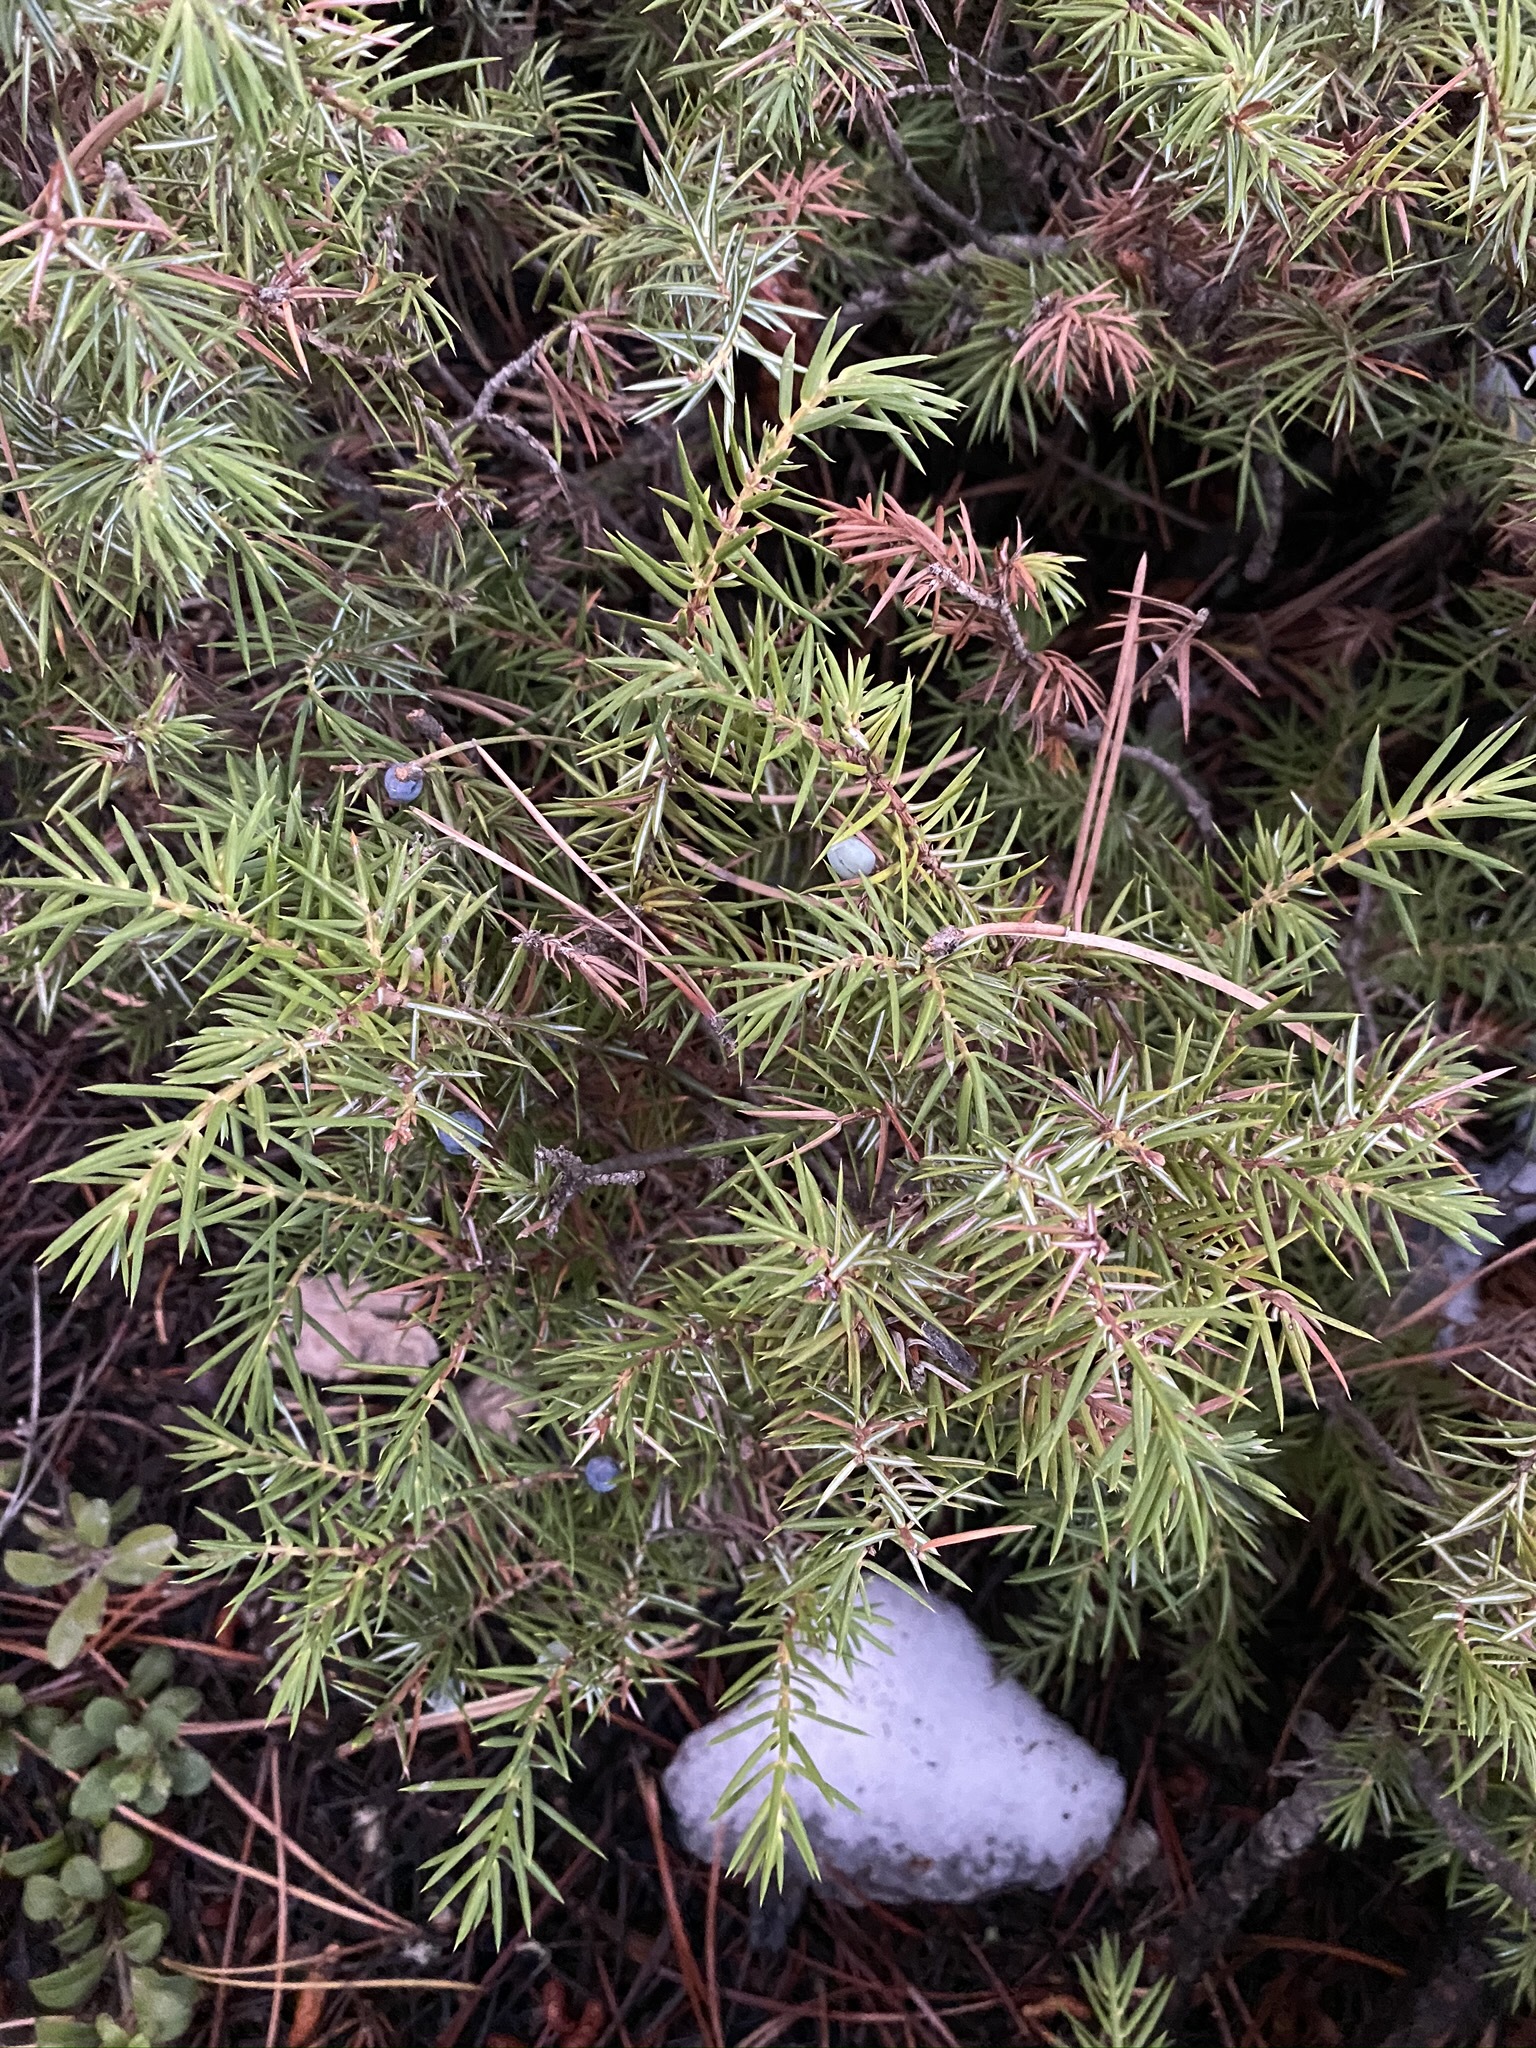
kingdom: Plantae
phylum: Tracheophyta
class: Pinopsida
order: Pinales
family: Cupressaceae
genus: Juniperus
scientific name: Juniperus communis
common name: Common juniper
